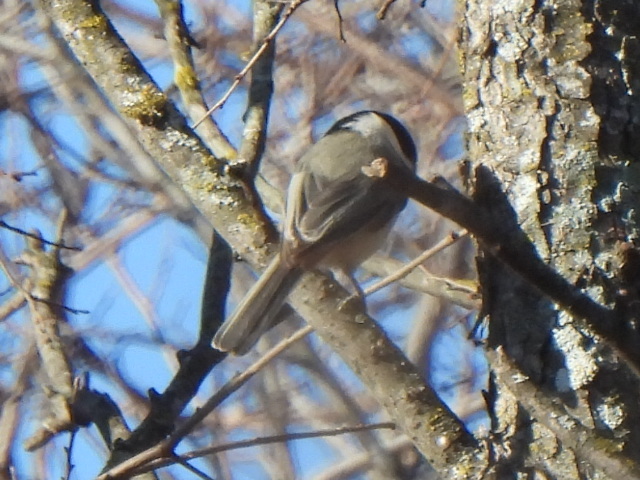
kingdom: Animalia
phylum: Chordata
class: Aves
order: Passeriformes
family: Paridae
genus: Poecile
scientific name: Poecile carolinensis
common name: Carolina chickadee
